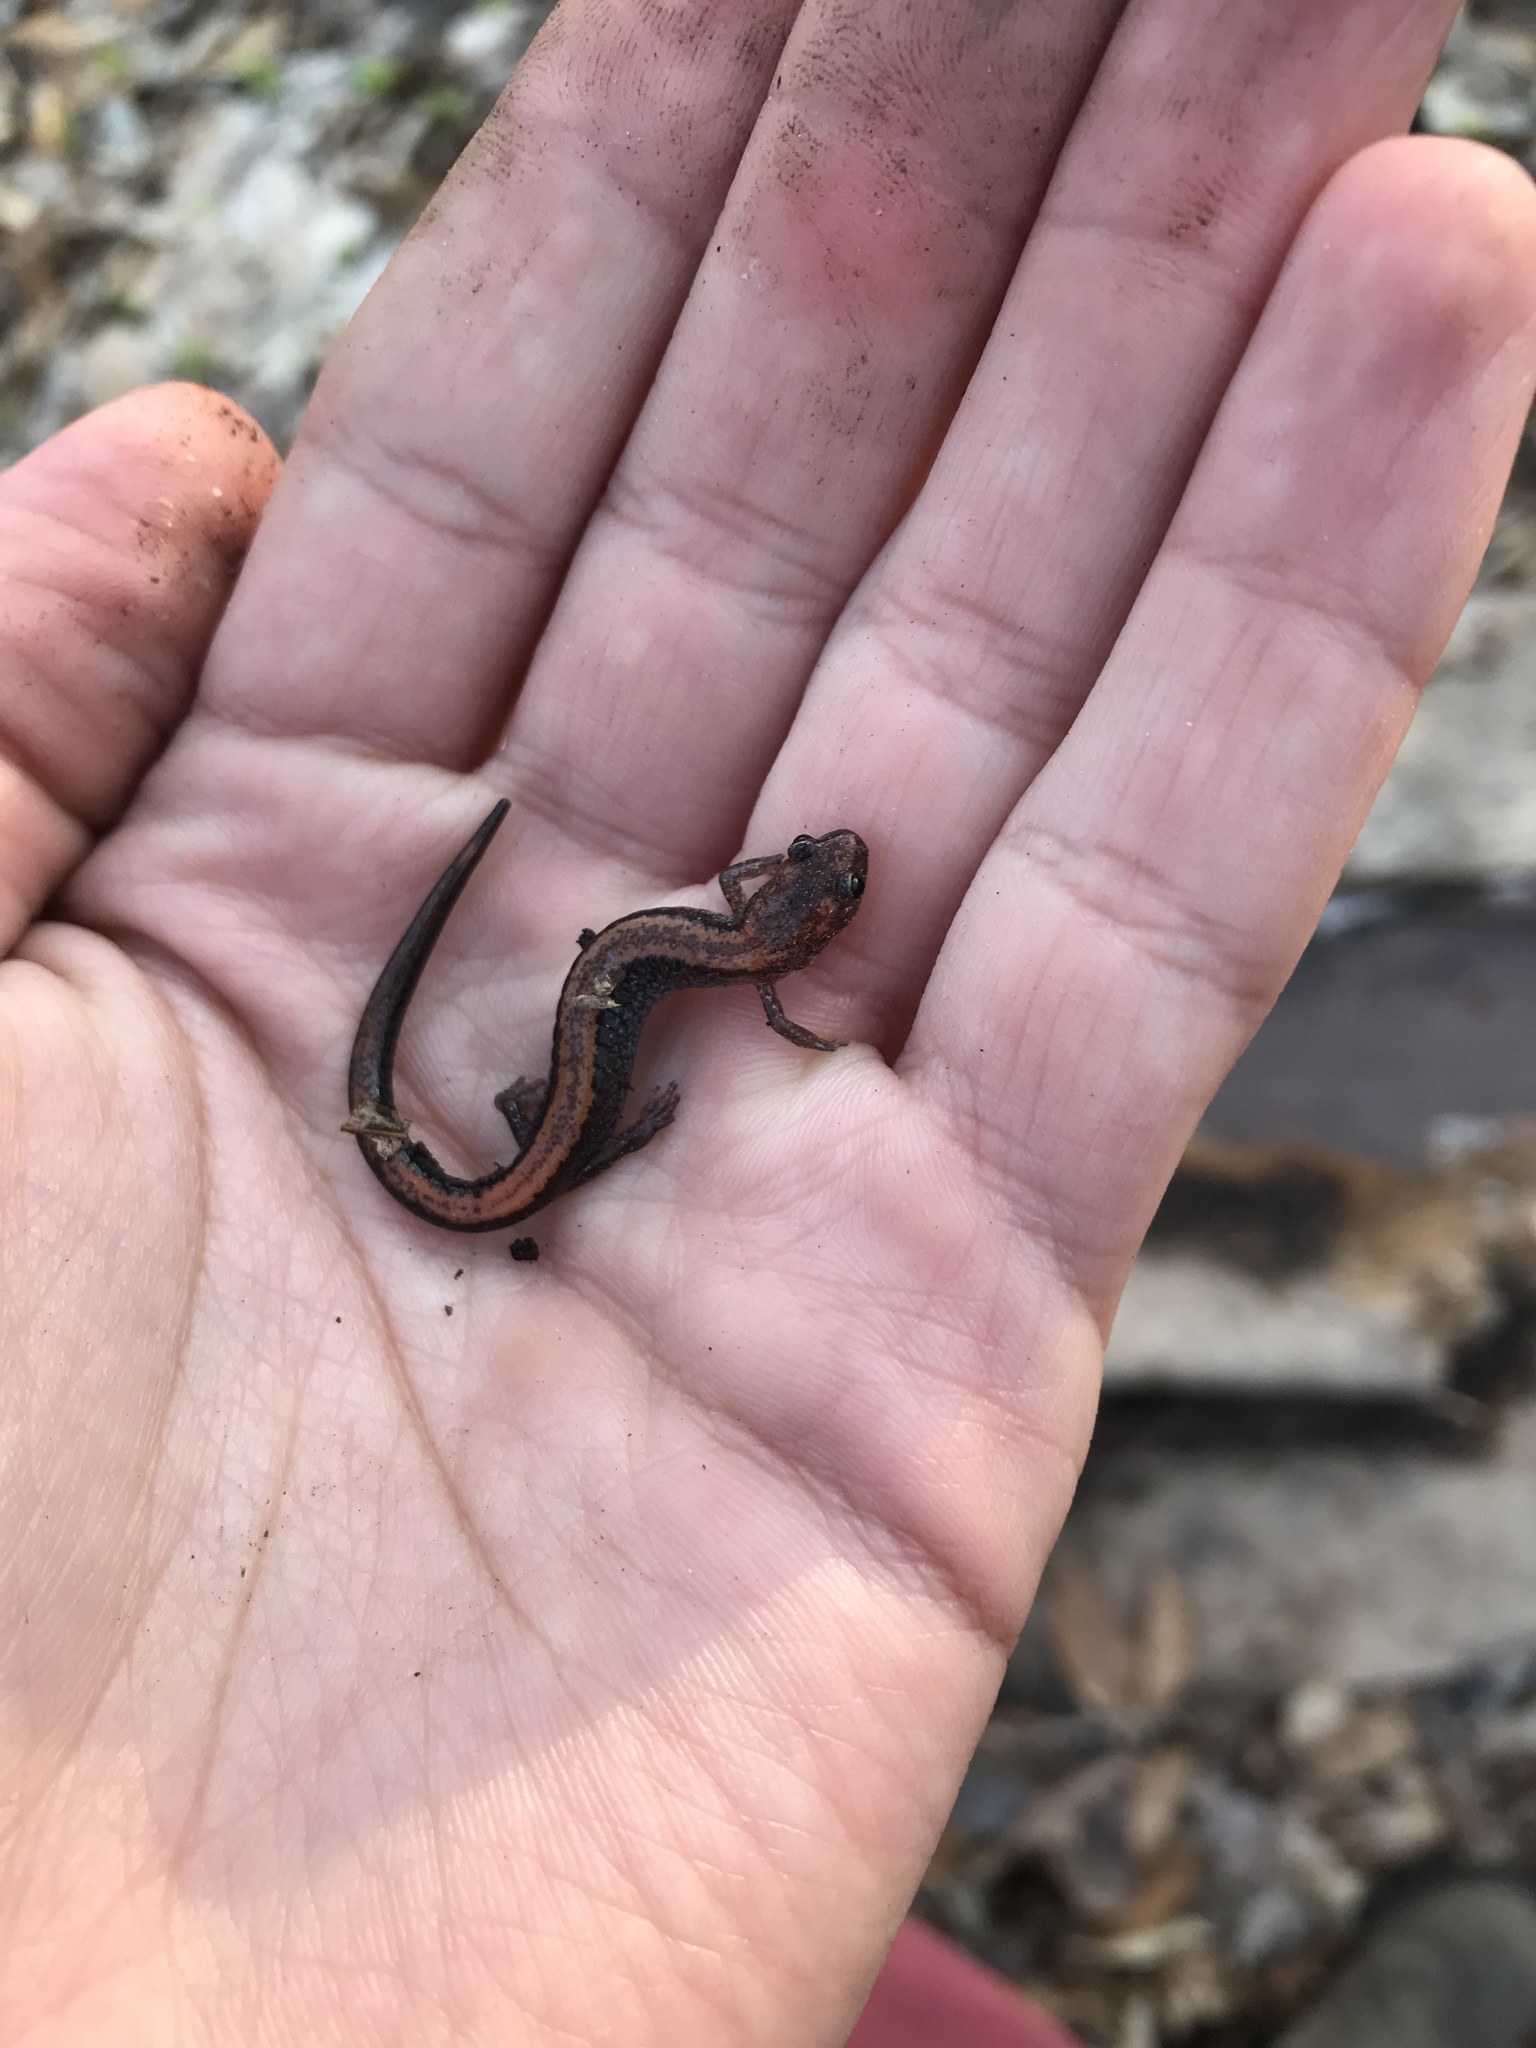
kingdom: Animalia
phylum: Chordata
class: Amphibia
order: Caudata
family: Plethodontidae
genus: Plethodon
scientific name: Plethodon cinereus
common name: Redback salamander
